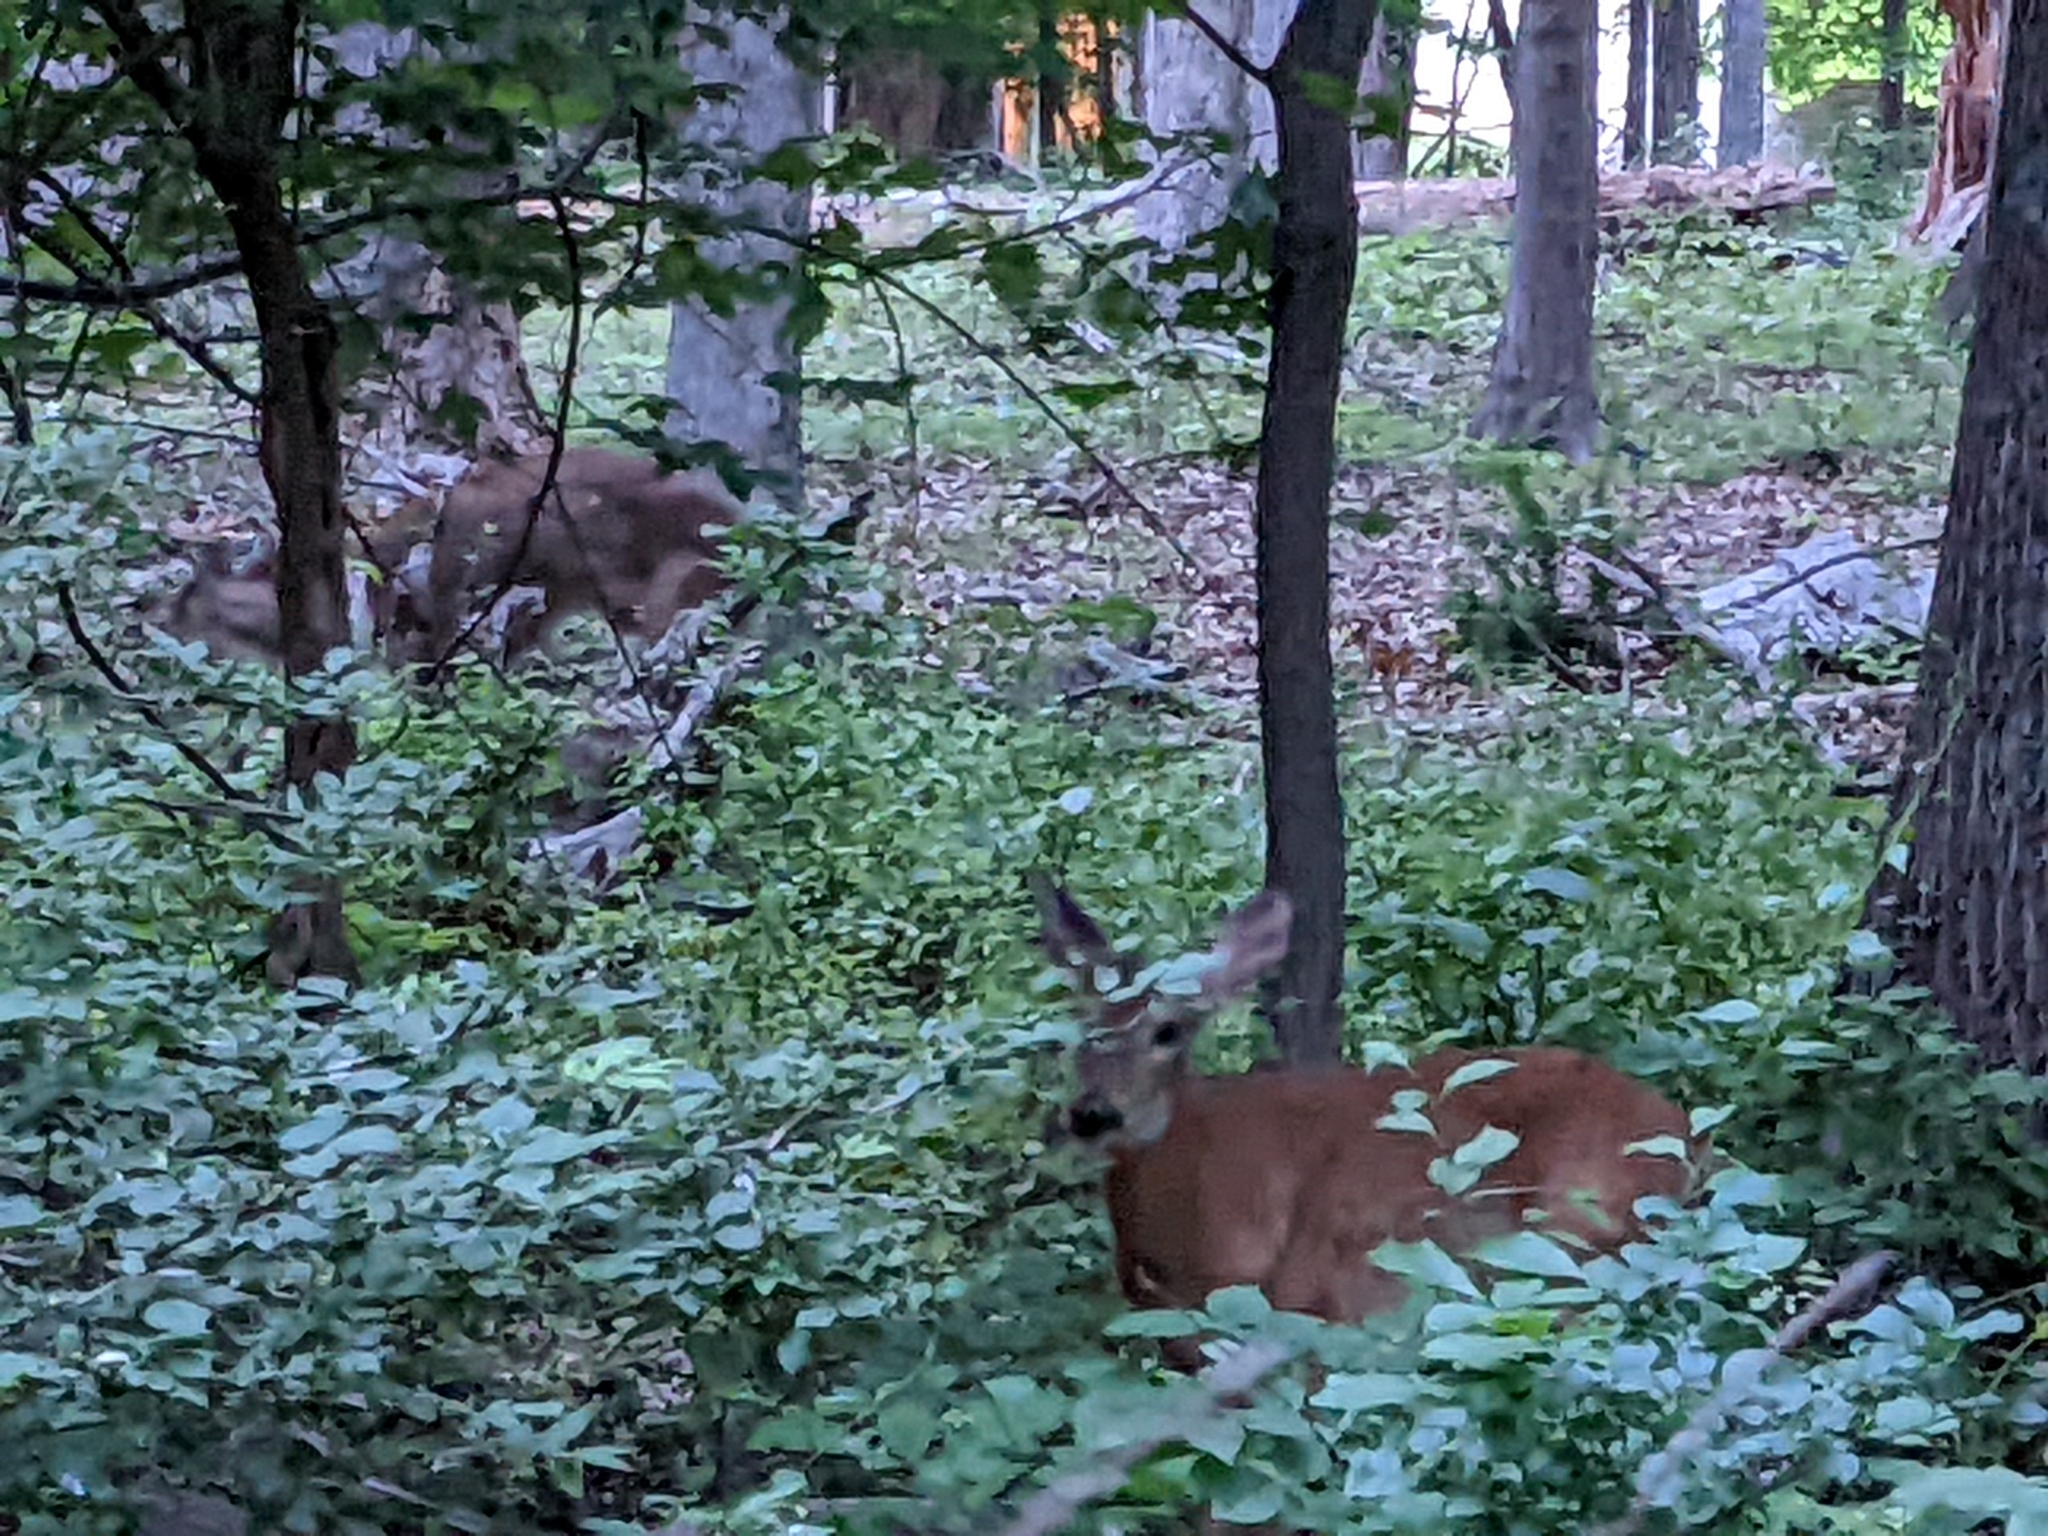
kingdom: Animalia
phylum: Chordata
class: Mammalia
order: Artiodactyla
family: Cervidae
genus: Odocoileus
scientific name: Odocoileus virginianus
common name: White-tailed deer
